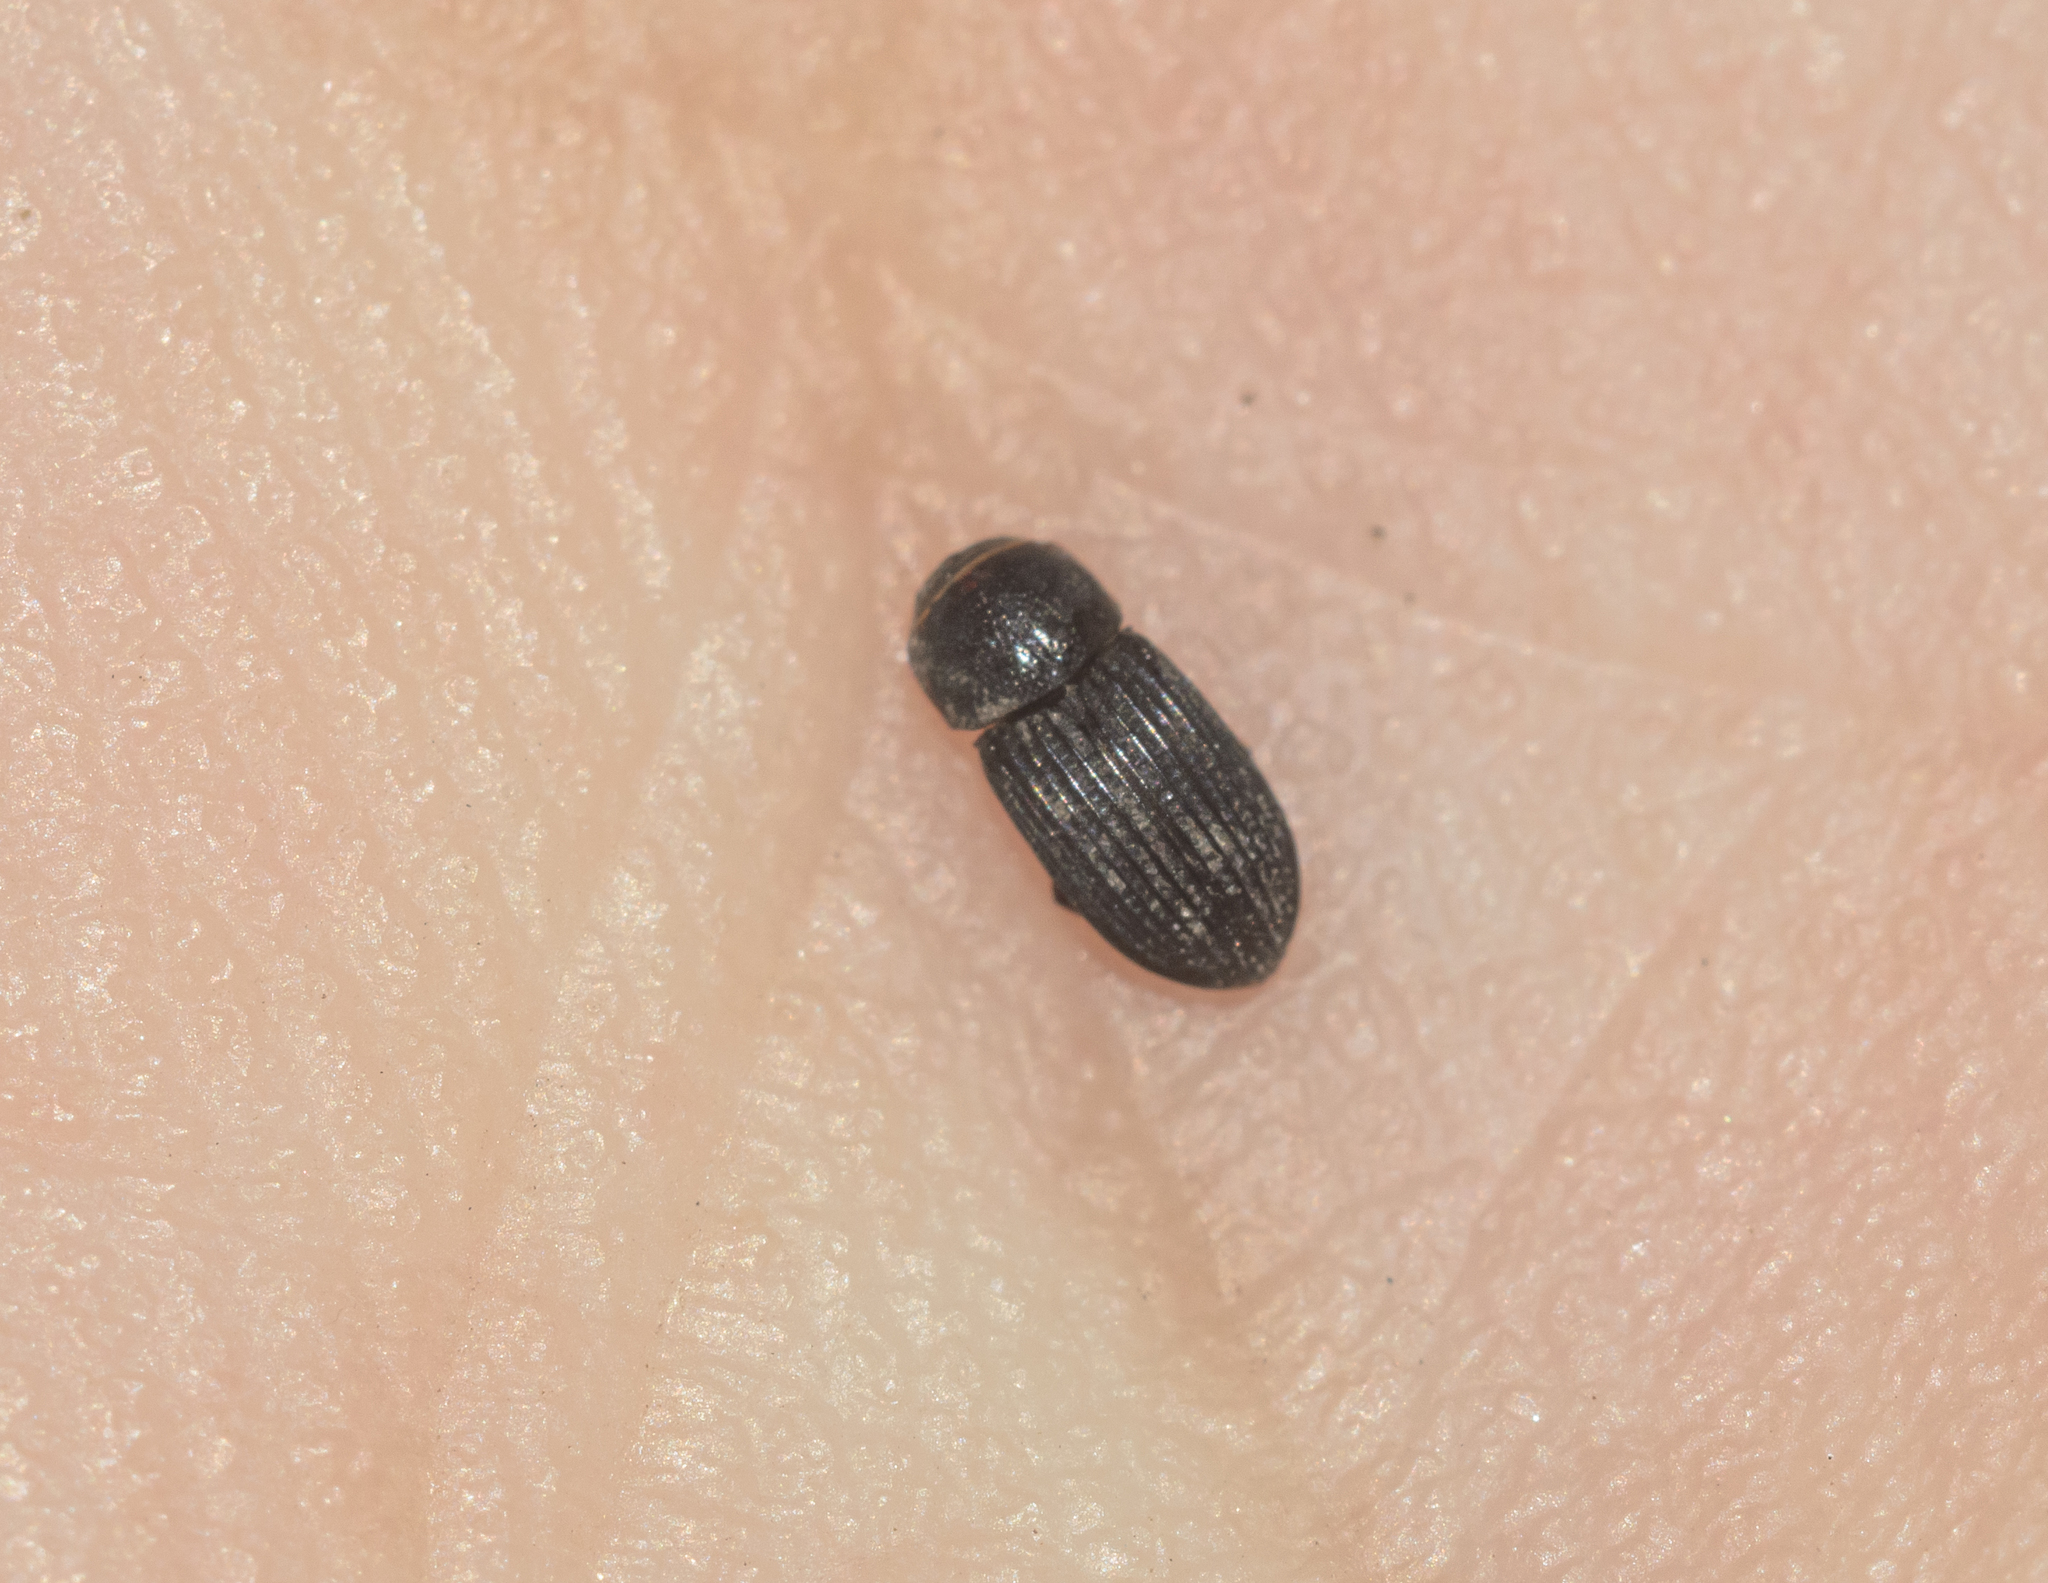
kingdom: Animalia
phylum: Arthropoda
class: Insecta
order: Coleoptera
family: Scarabaeidae
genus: Oxyomus
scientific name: Oxyomus sylvestris
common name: Forest small dung beetle
